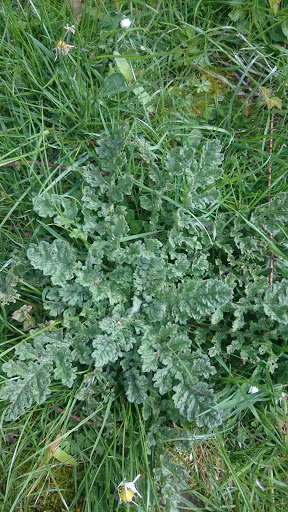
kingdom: Plantae
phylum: Tracheophyta
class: Magnoliopsida
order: Asterales
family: Asteraceae
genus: Jacobaea
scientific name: Jacobaea vulgaris
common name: Stinking willie
